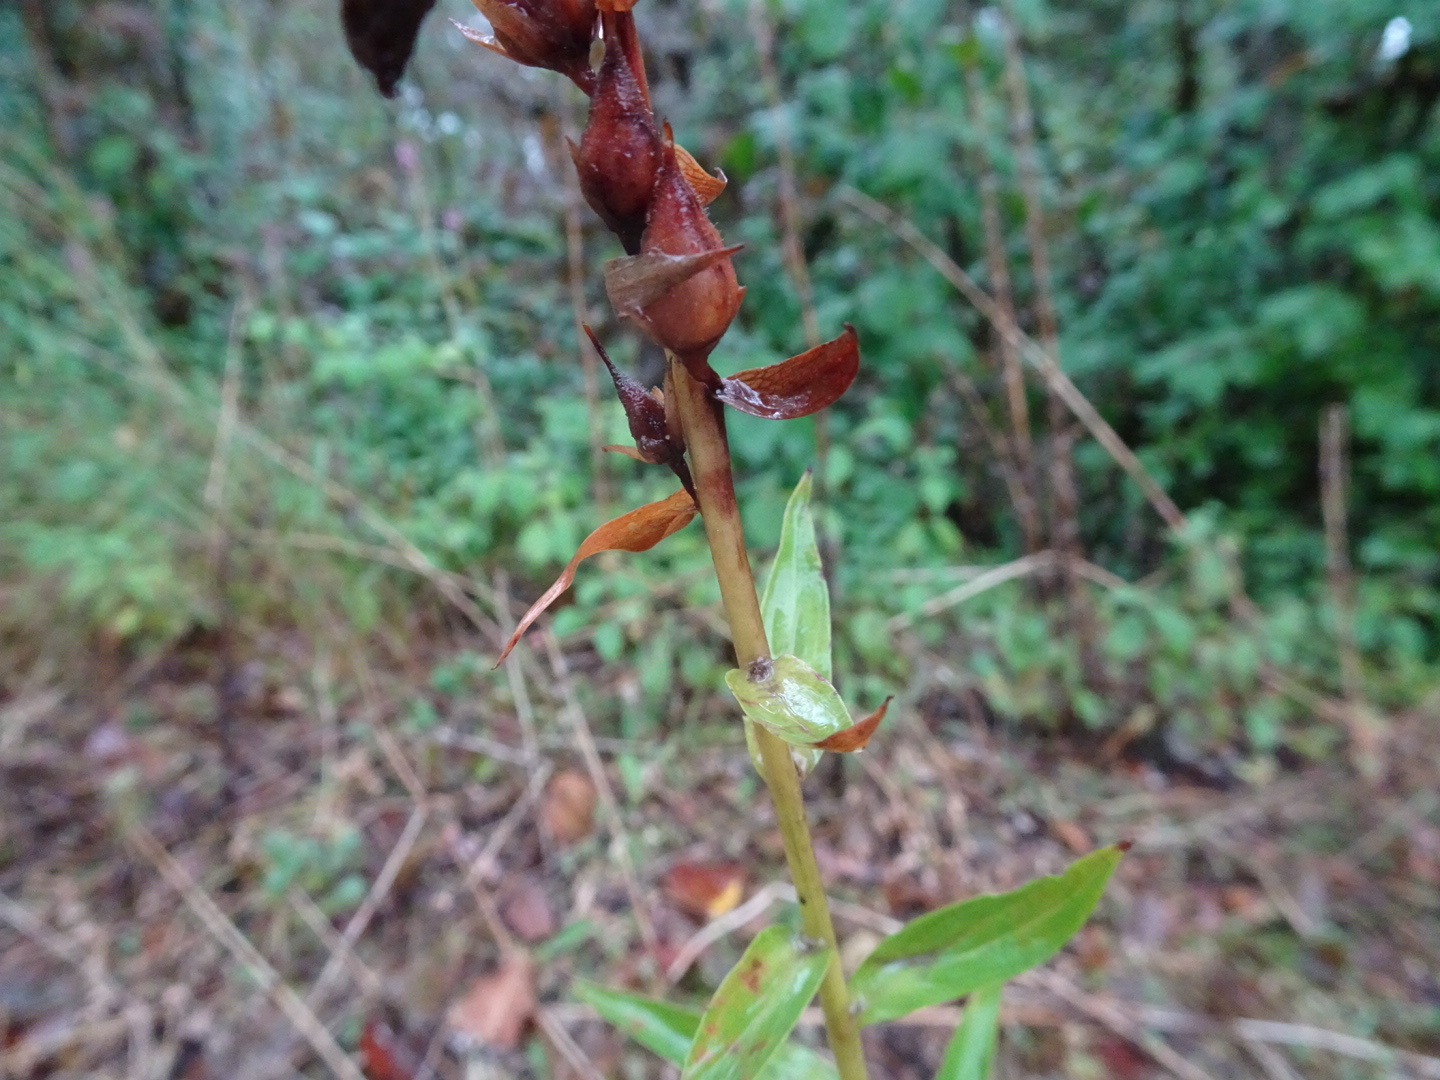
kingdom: Plantae
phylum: Tracheophyta
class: Magnoliopsida
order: Lamiales
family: Plantaginaceae
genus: Digitalis
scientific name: Digitalis lutea
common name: Straw foxglove
